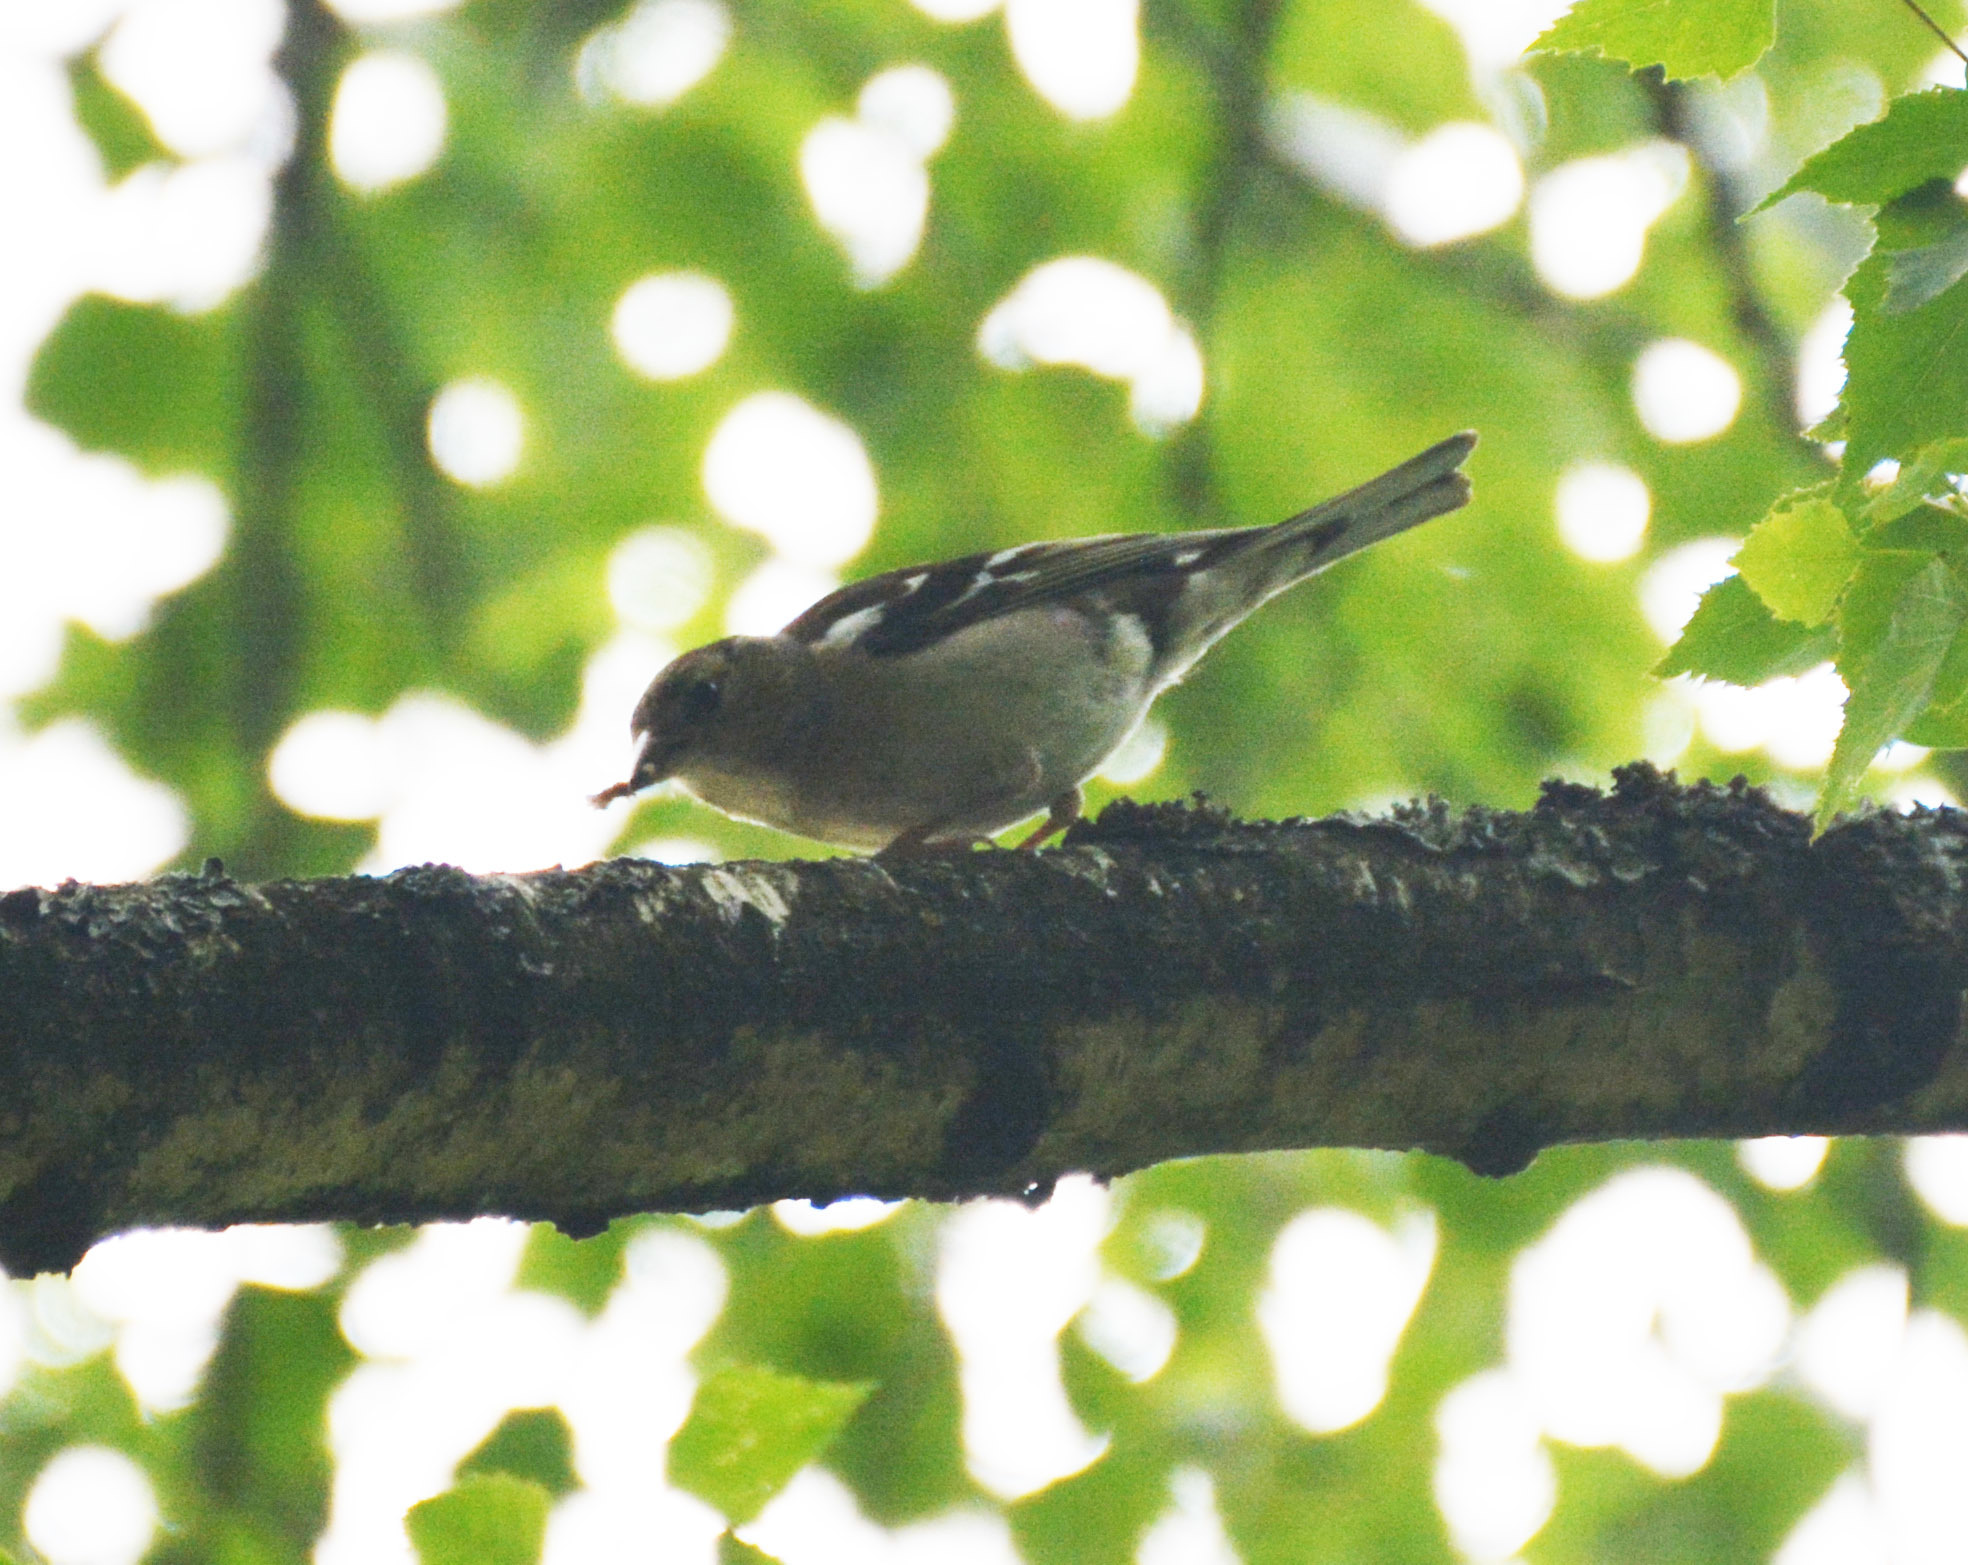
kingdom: Animalia
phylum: Chordata
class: Aves
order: Passeriformes
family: Fringillidae
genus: Fringilla
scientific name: Fringilla coelebs
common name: Common chaffinch
